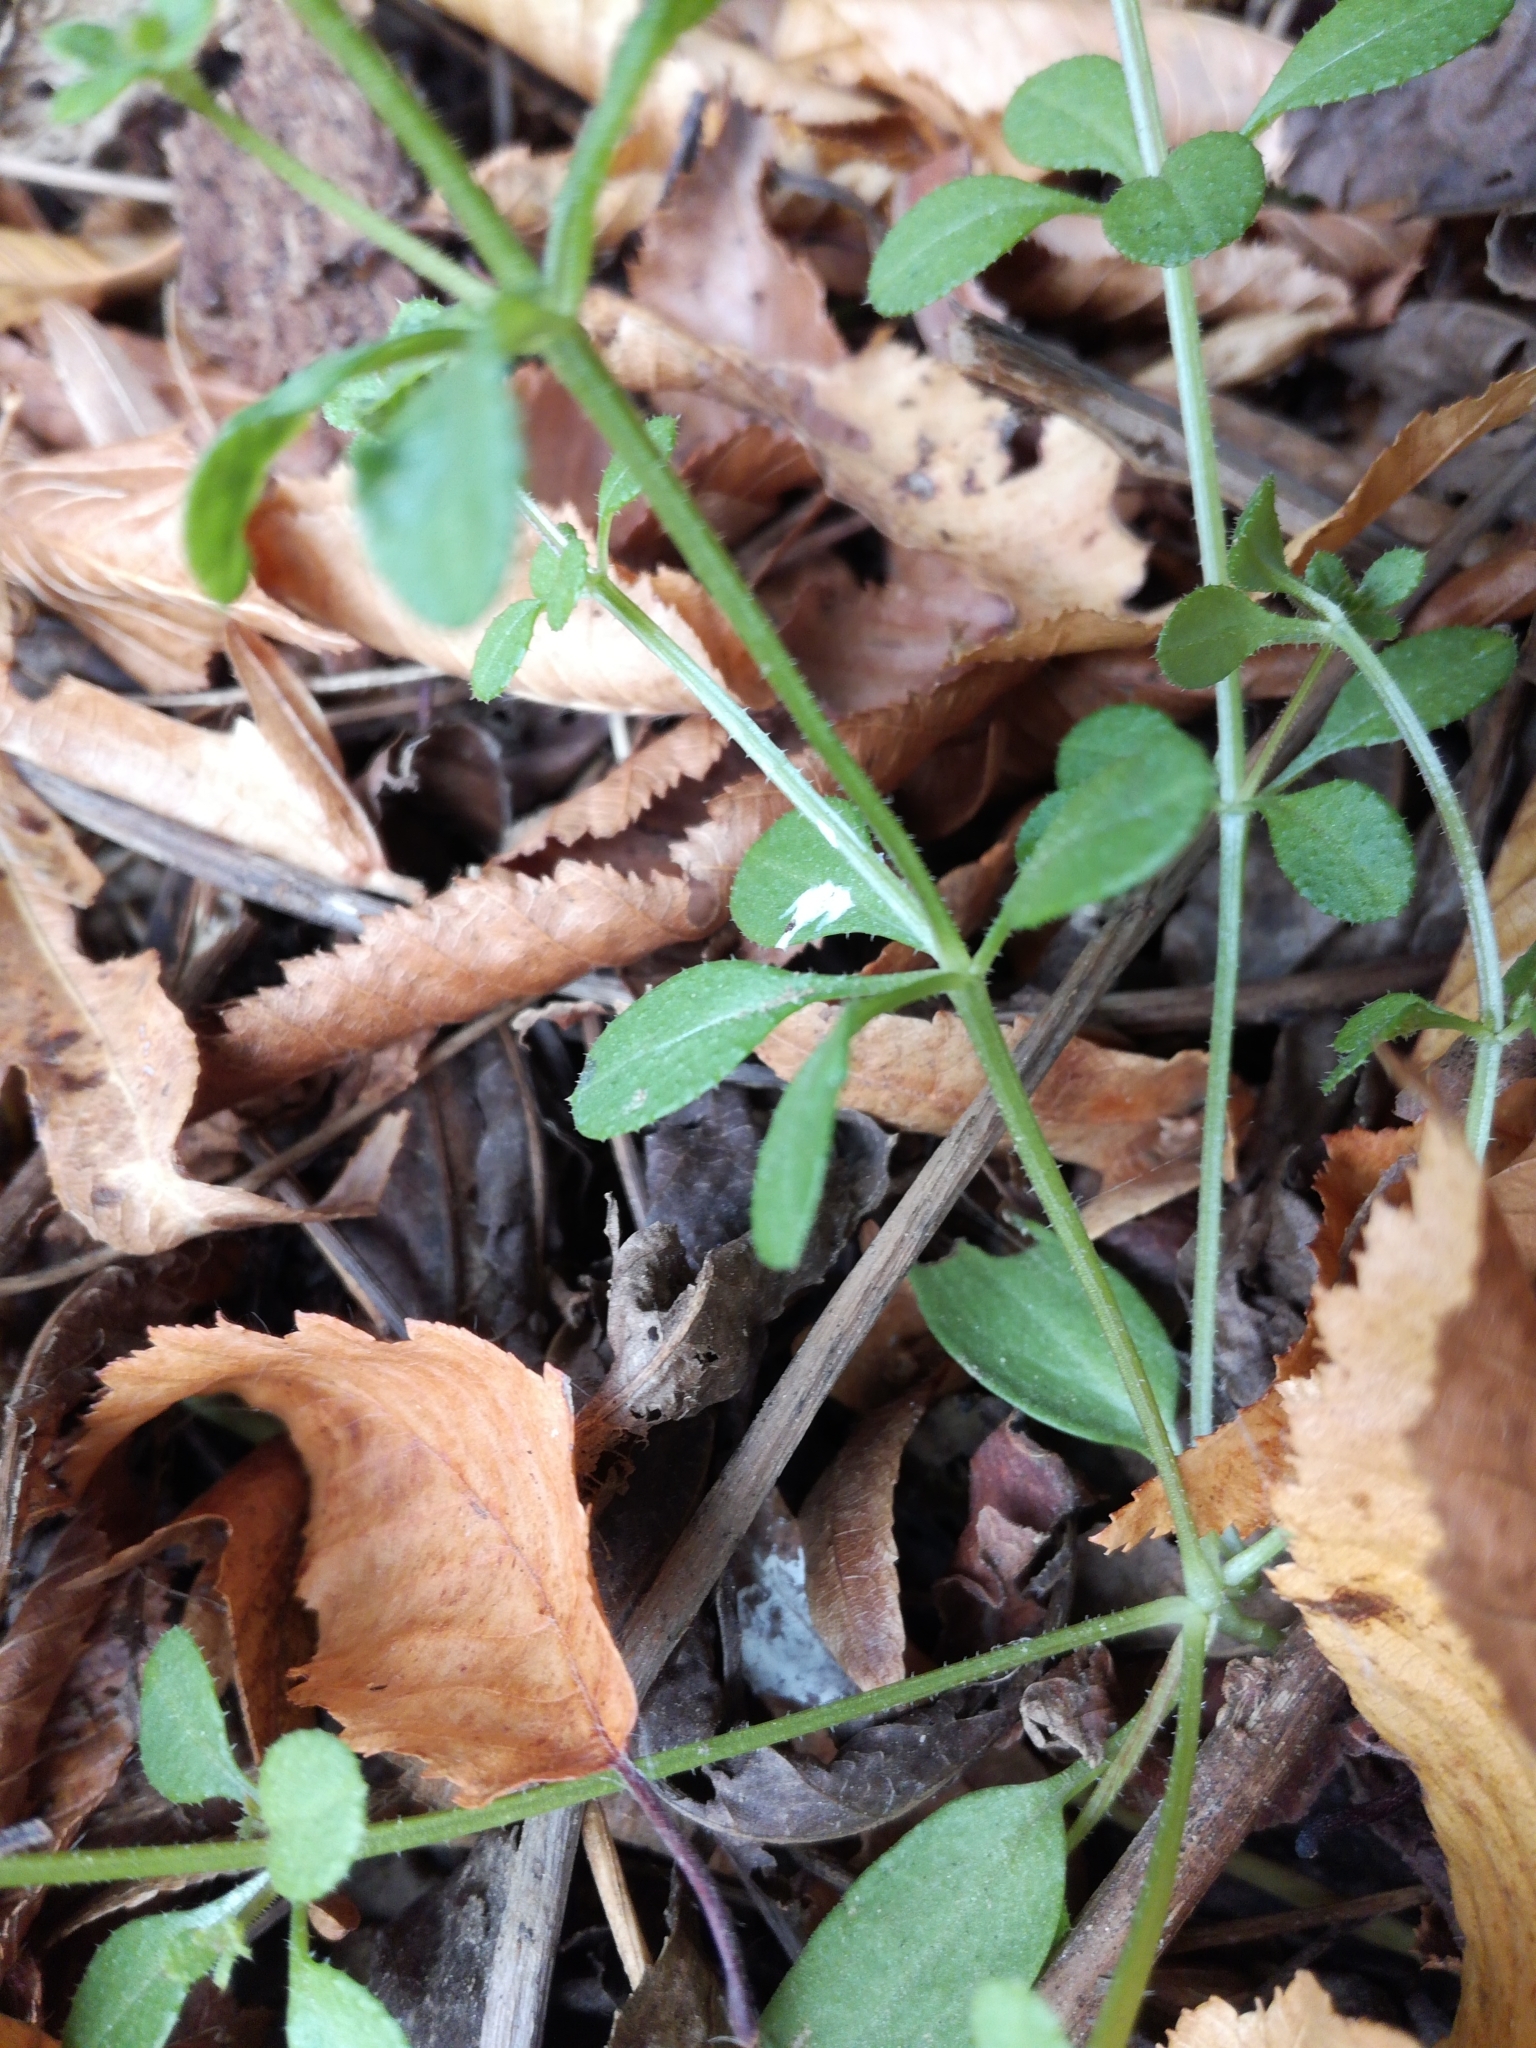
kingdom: Plantae
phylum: Tracheophyta
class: Magnoliopsida
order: Gentianales
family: Rubiaceae
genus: Galium
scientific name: Galium aparine
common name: Cleavers
